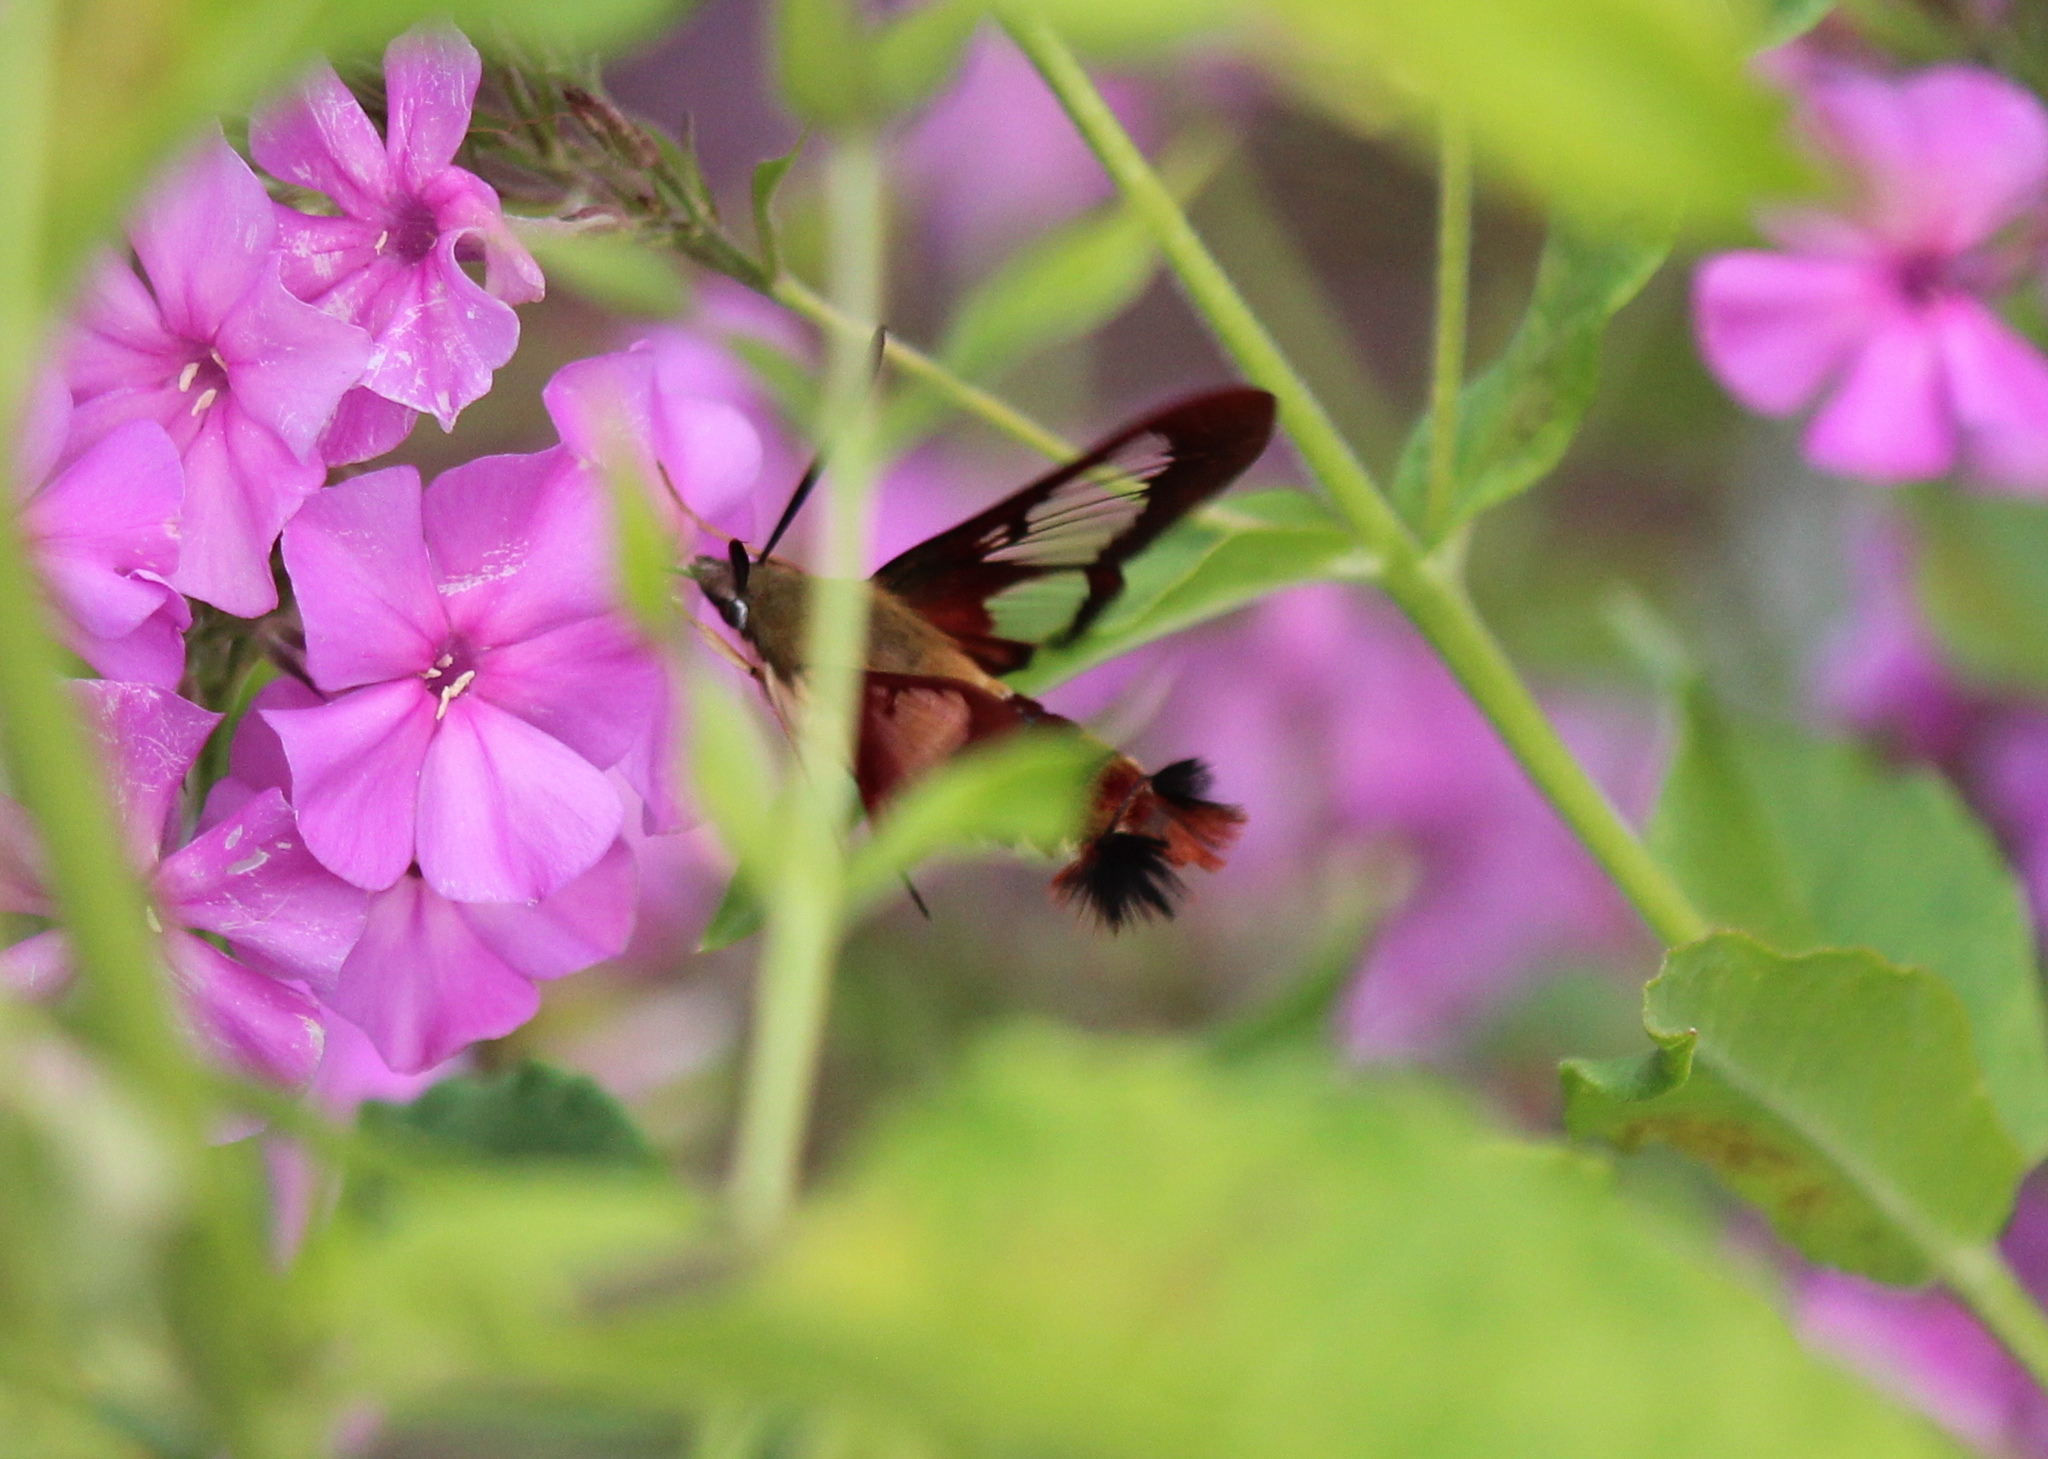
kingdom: Animalia
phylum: Arthropoda
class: Insecta
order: Lepidoptera
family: Sphingidae
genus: Hemaris
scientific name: Hemaris thysbe
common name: Common clear-wing
